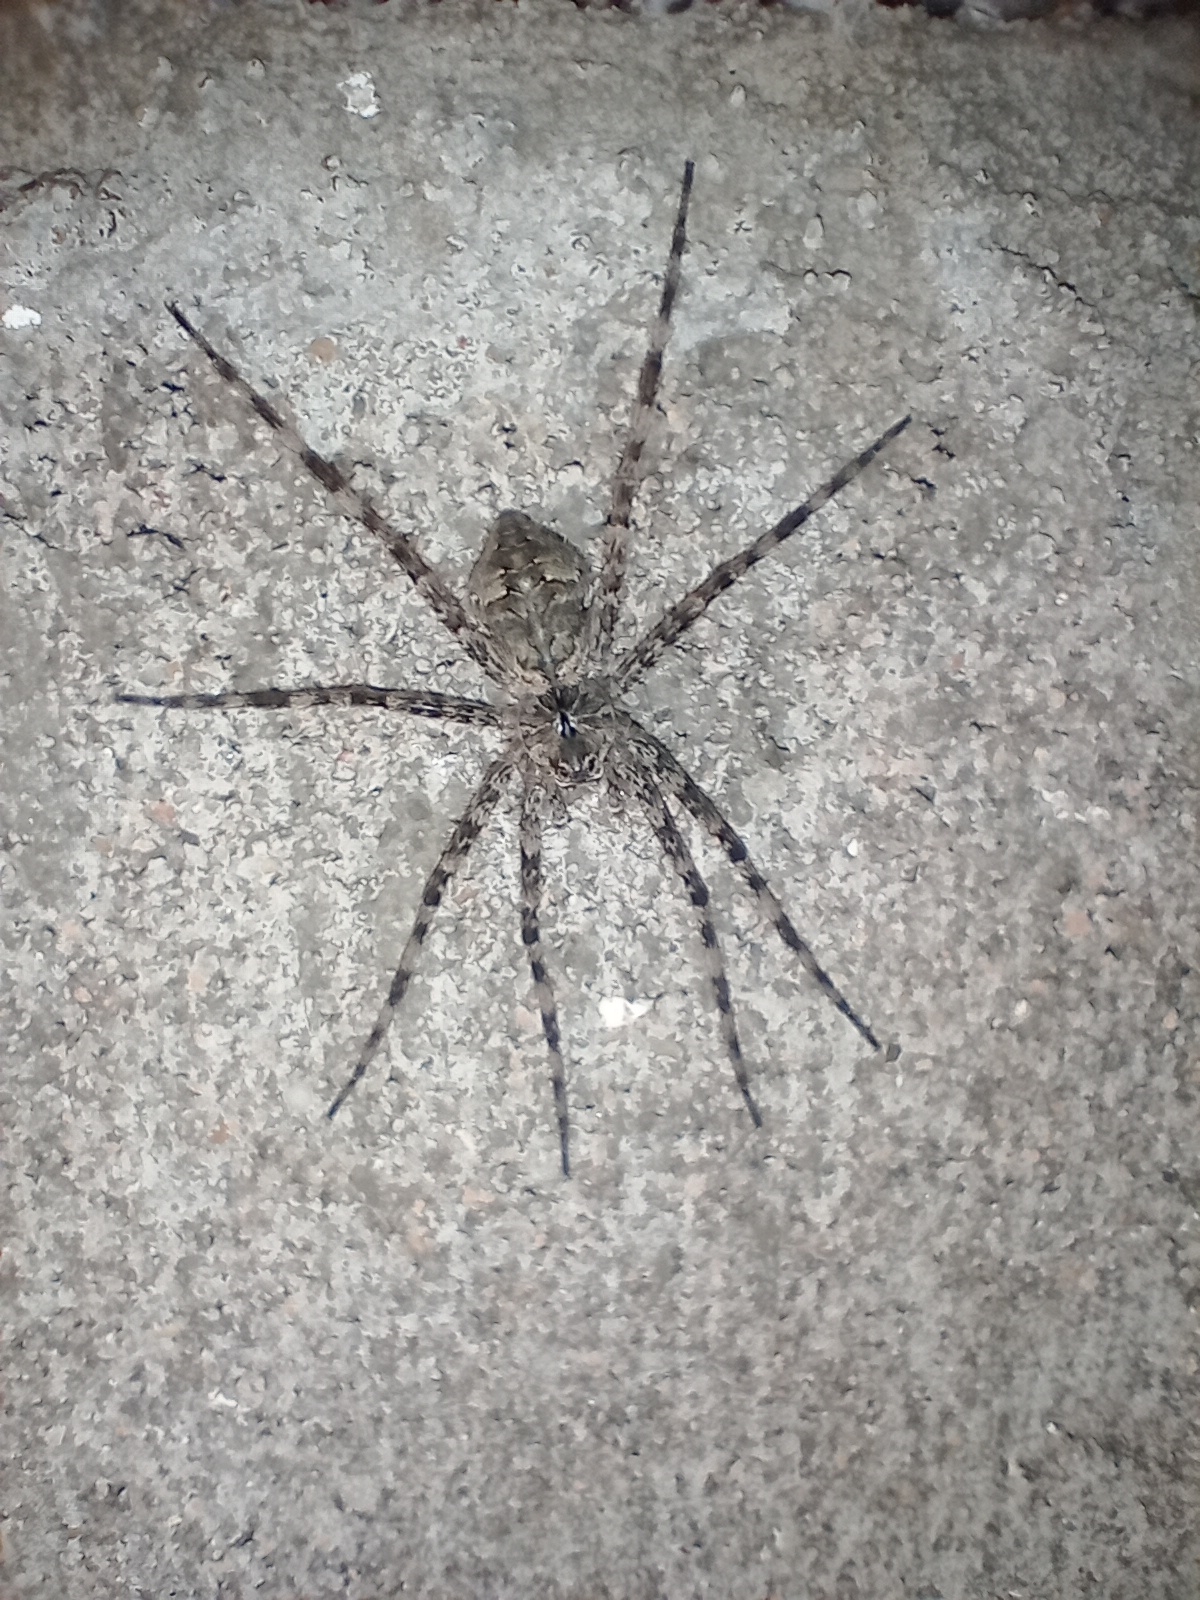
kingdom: Animalia
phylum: Arthropoda
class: Arachnida
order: Araneae
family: Pisauridae
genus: Dolomedes
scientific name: Dolomedes albineus
